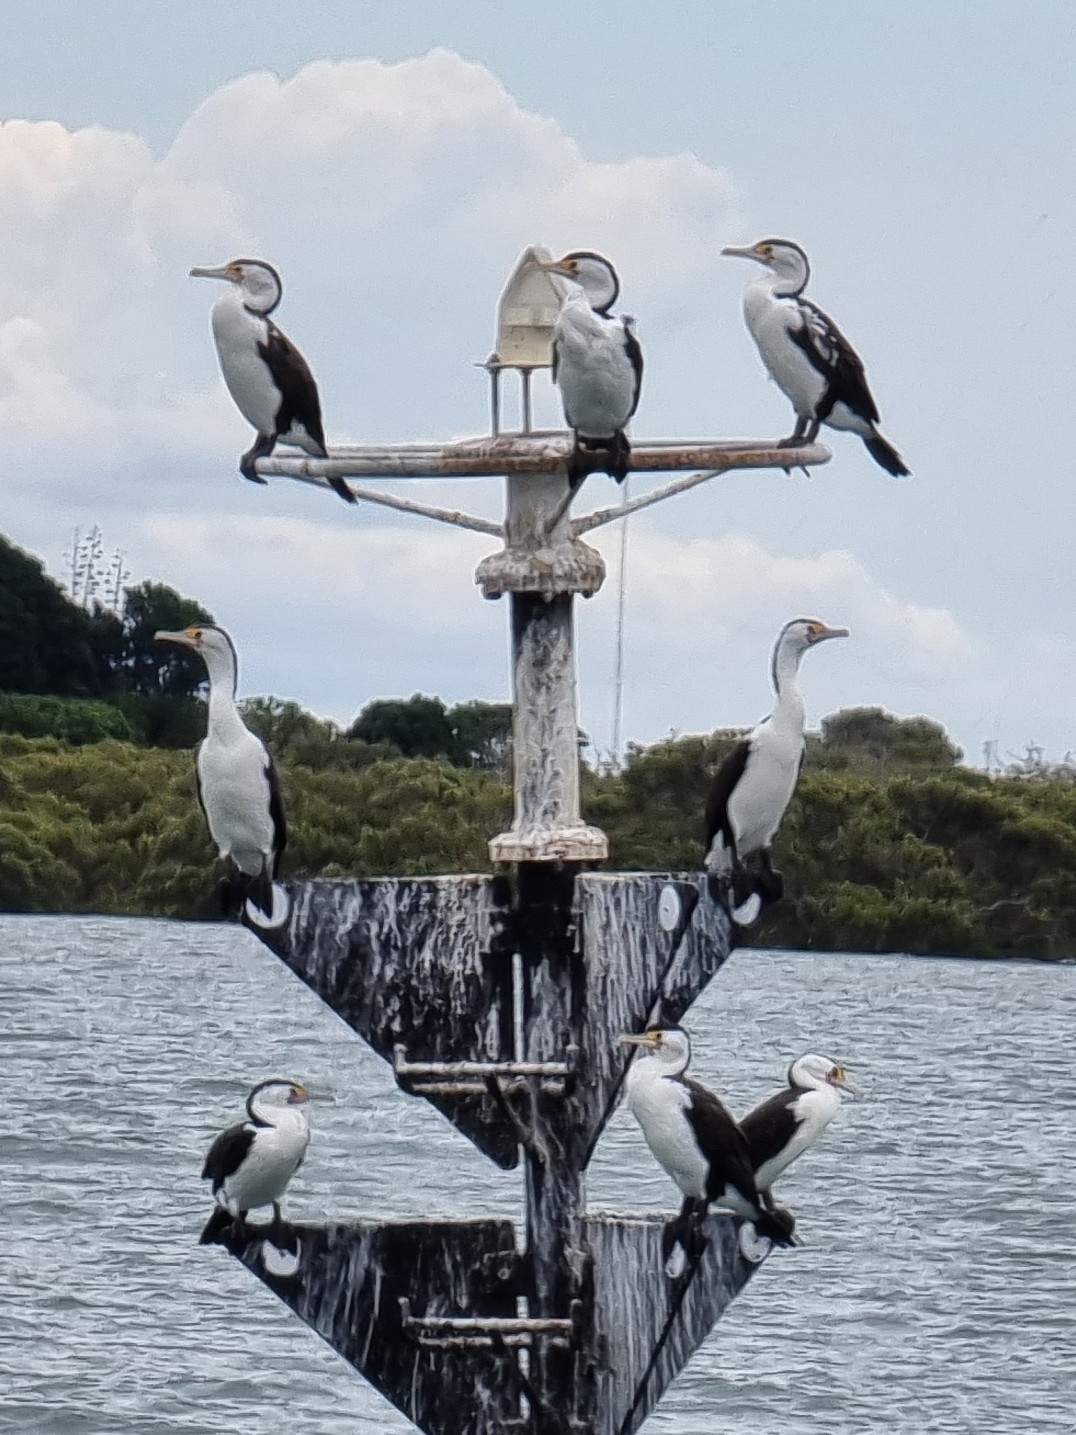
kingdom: Animalia
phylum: Chordata
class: Aves
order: Suliformes
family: Phalacrocoracidae
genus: Phalacrocorax
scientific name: Phalacrocorax varius
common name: Pied cormorant
